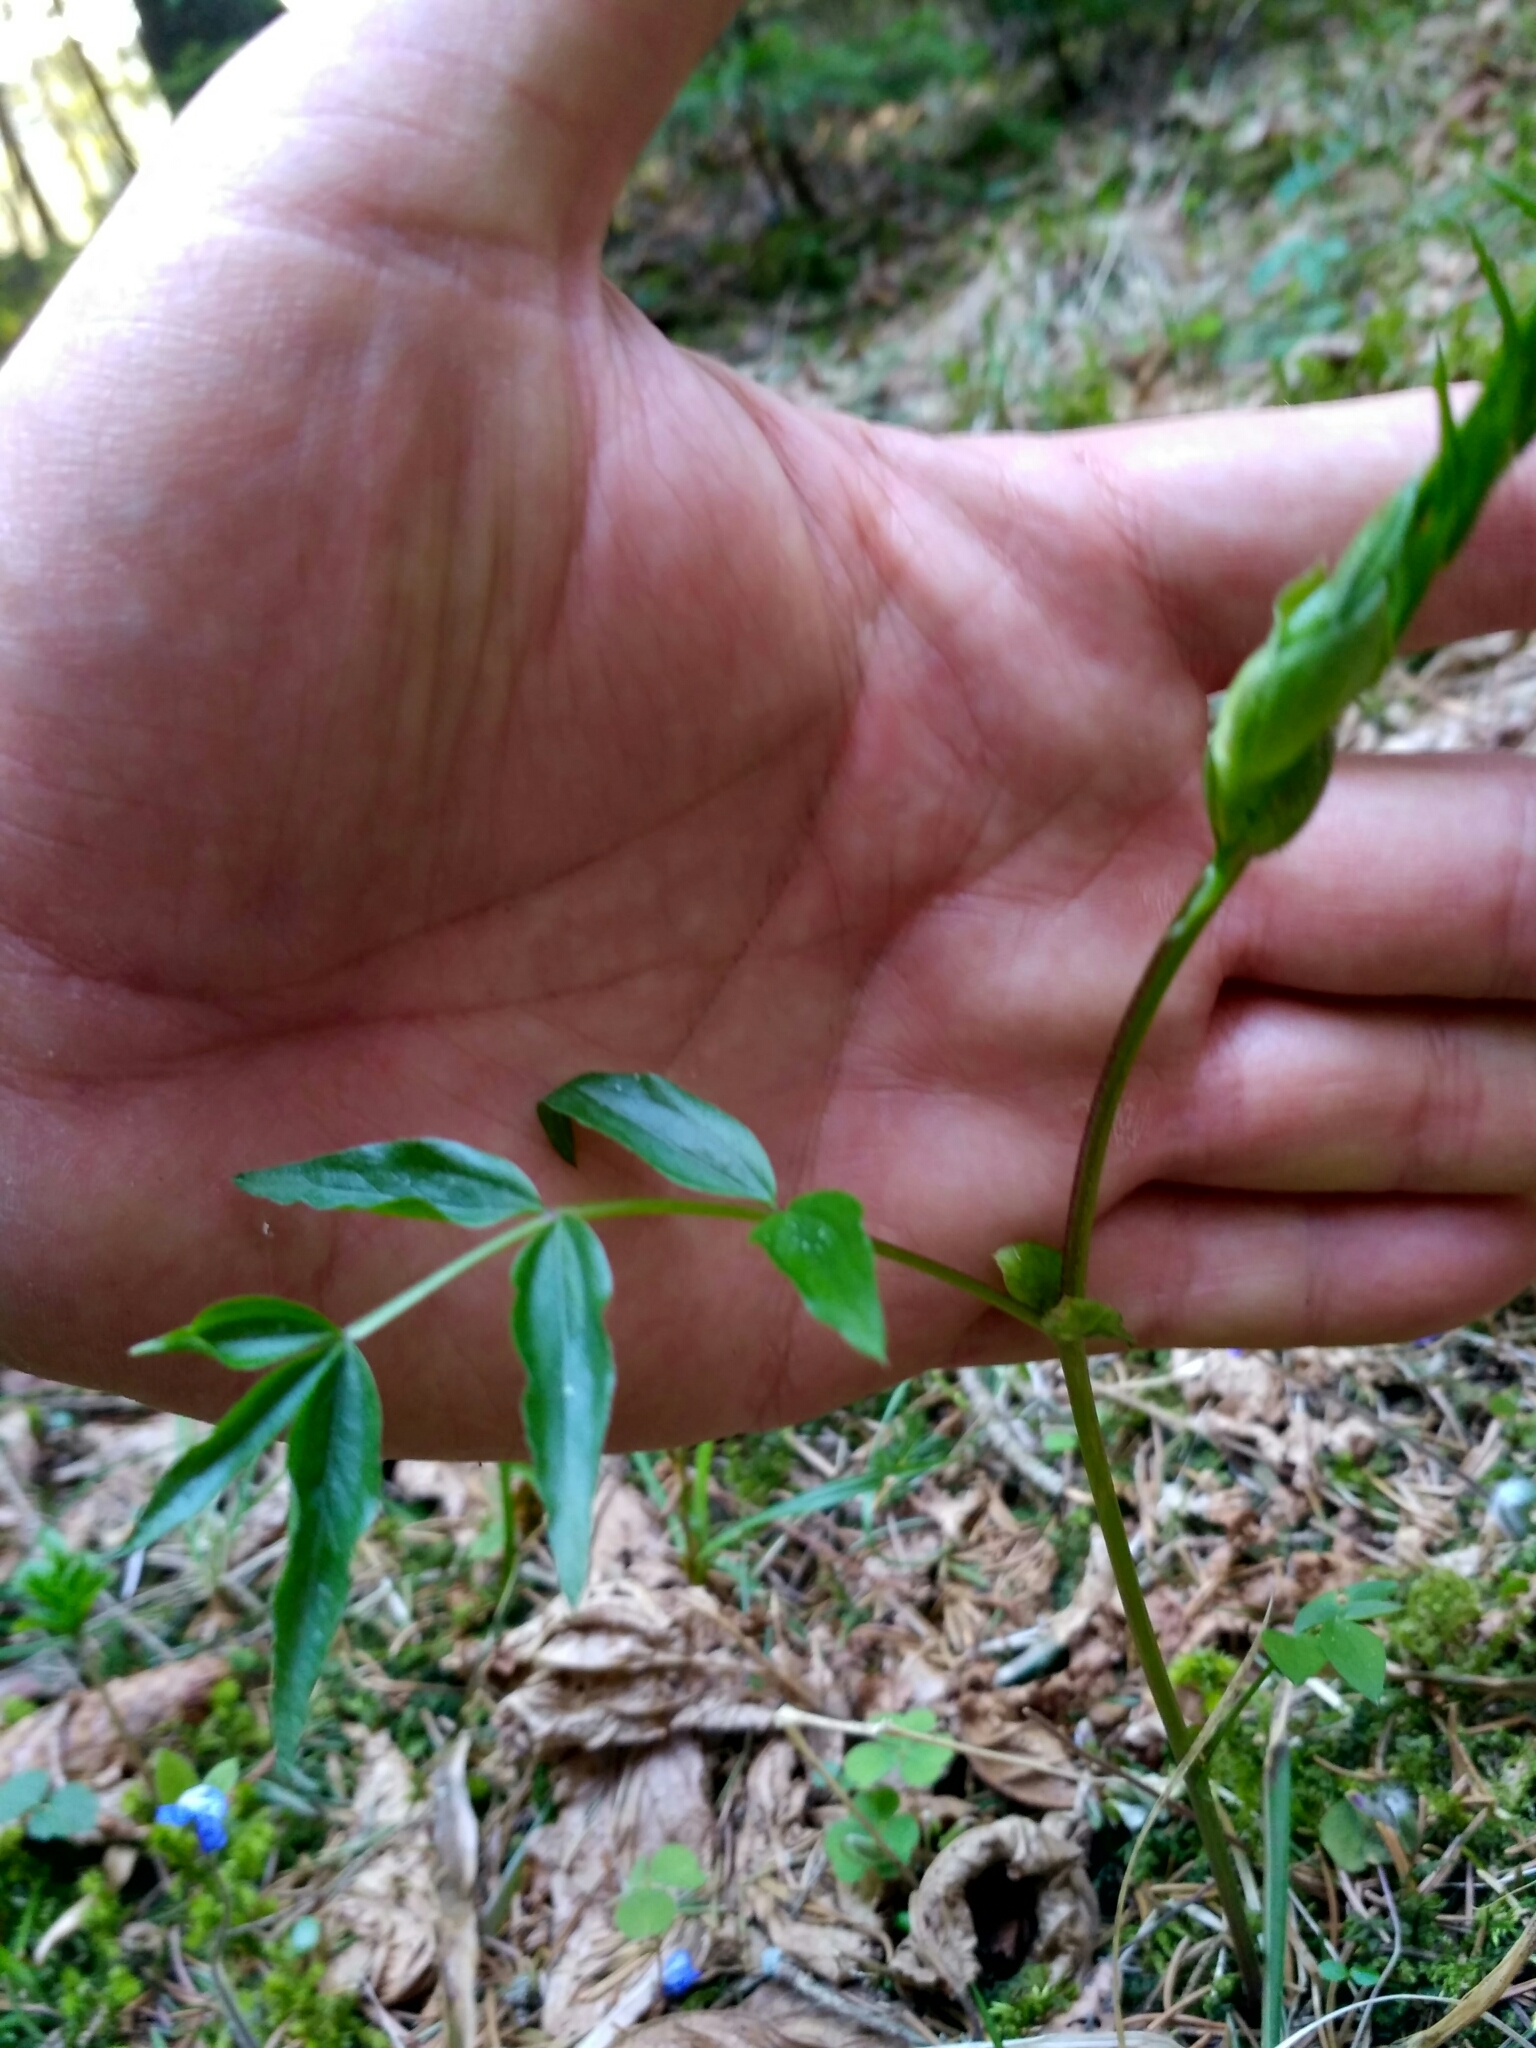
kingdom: Plantae
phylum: Tracheophyta
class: Magnoliopsida
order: Fabales
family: Fabaceae
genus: Lathyrus
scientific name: Lathyrus vernus
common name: Spring pea
